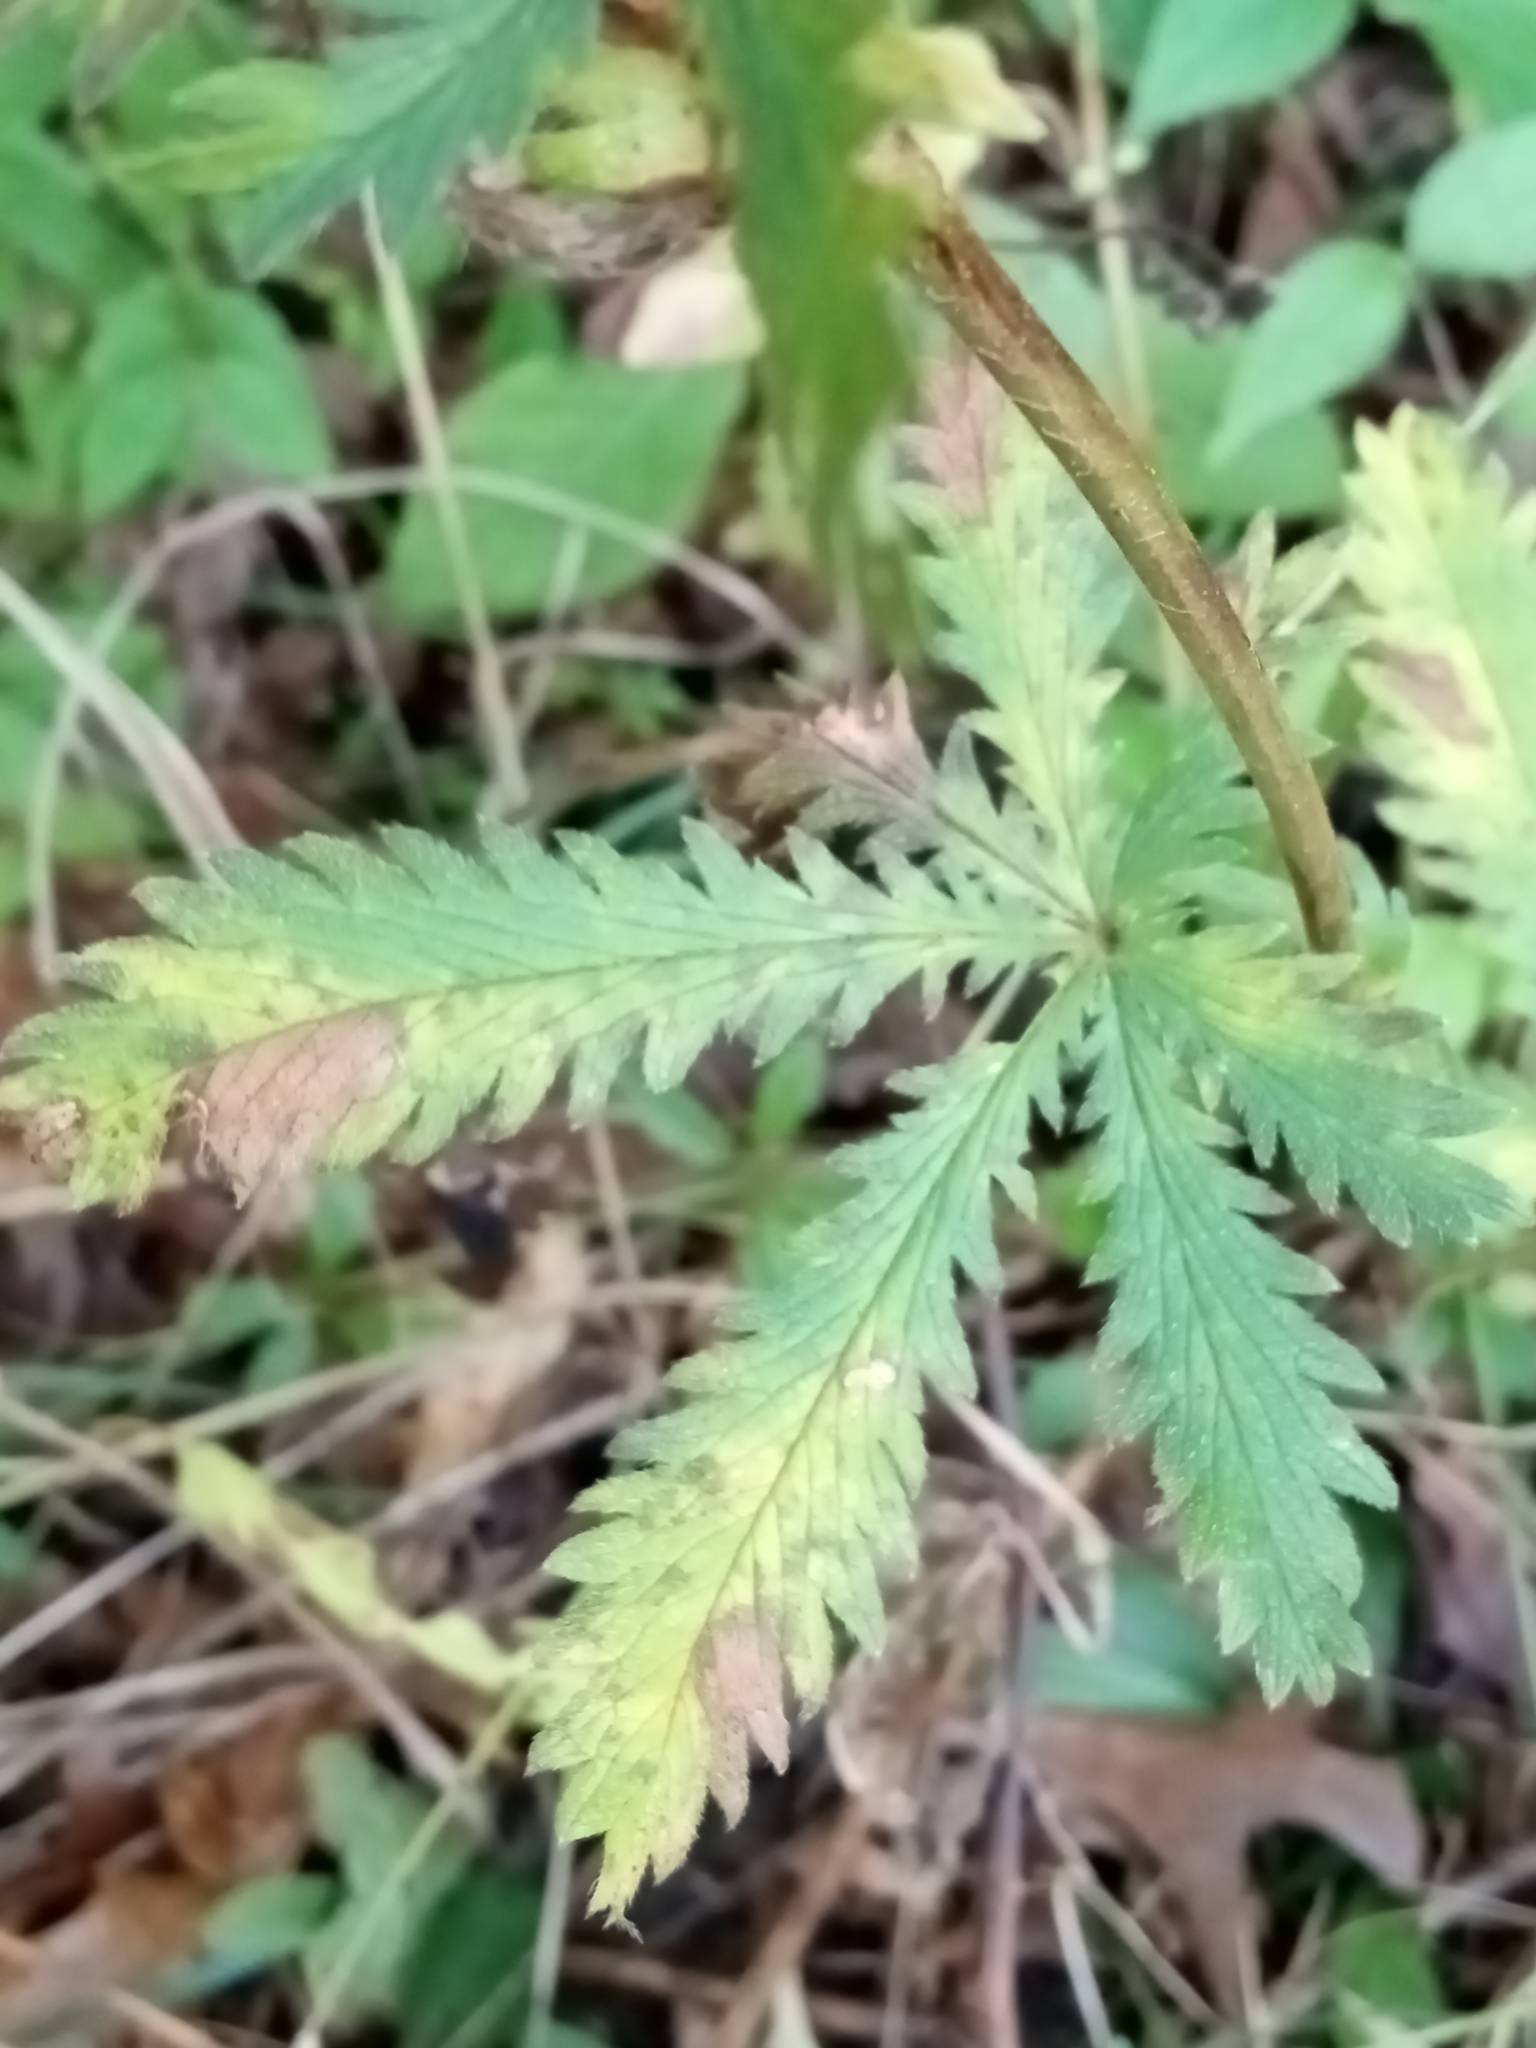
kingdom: Plantae
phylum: Tracheophyta
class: Magnoliopsida
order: Rosales
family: Rosaceae
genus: Potentilla
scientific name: Potentilla recta
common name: Sulphur cinquefoil
